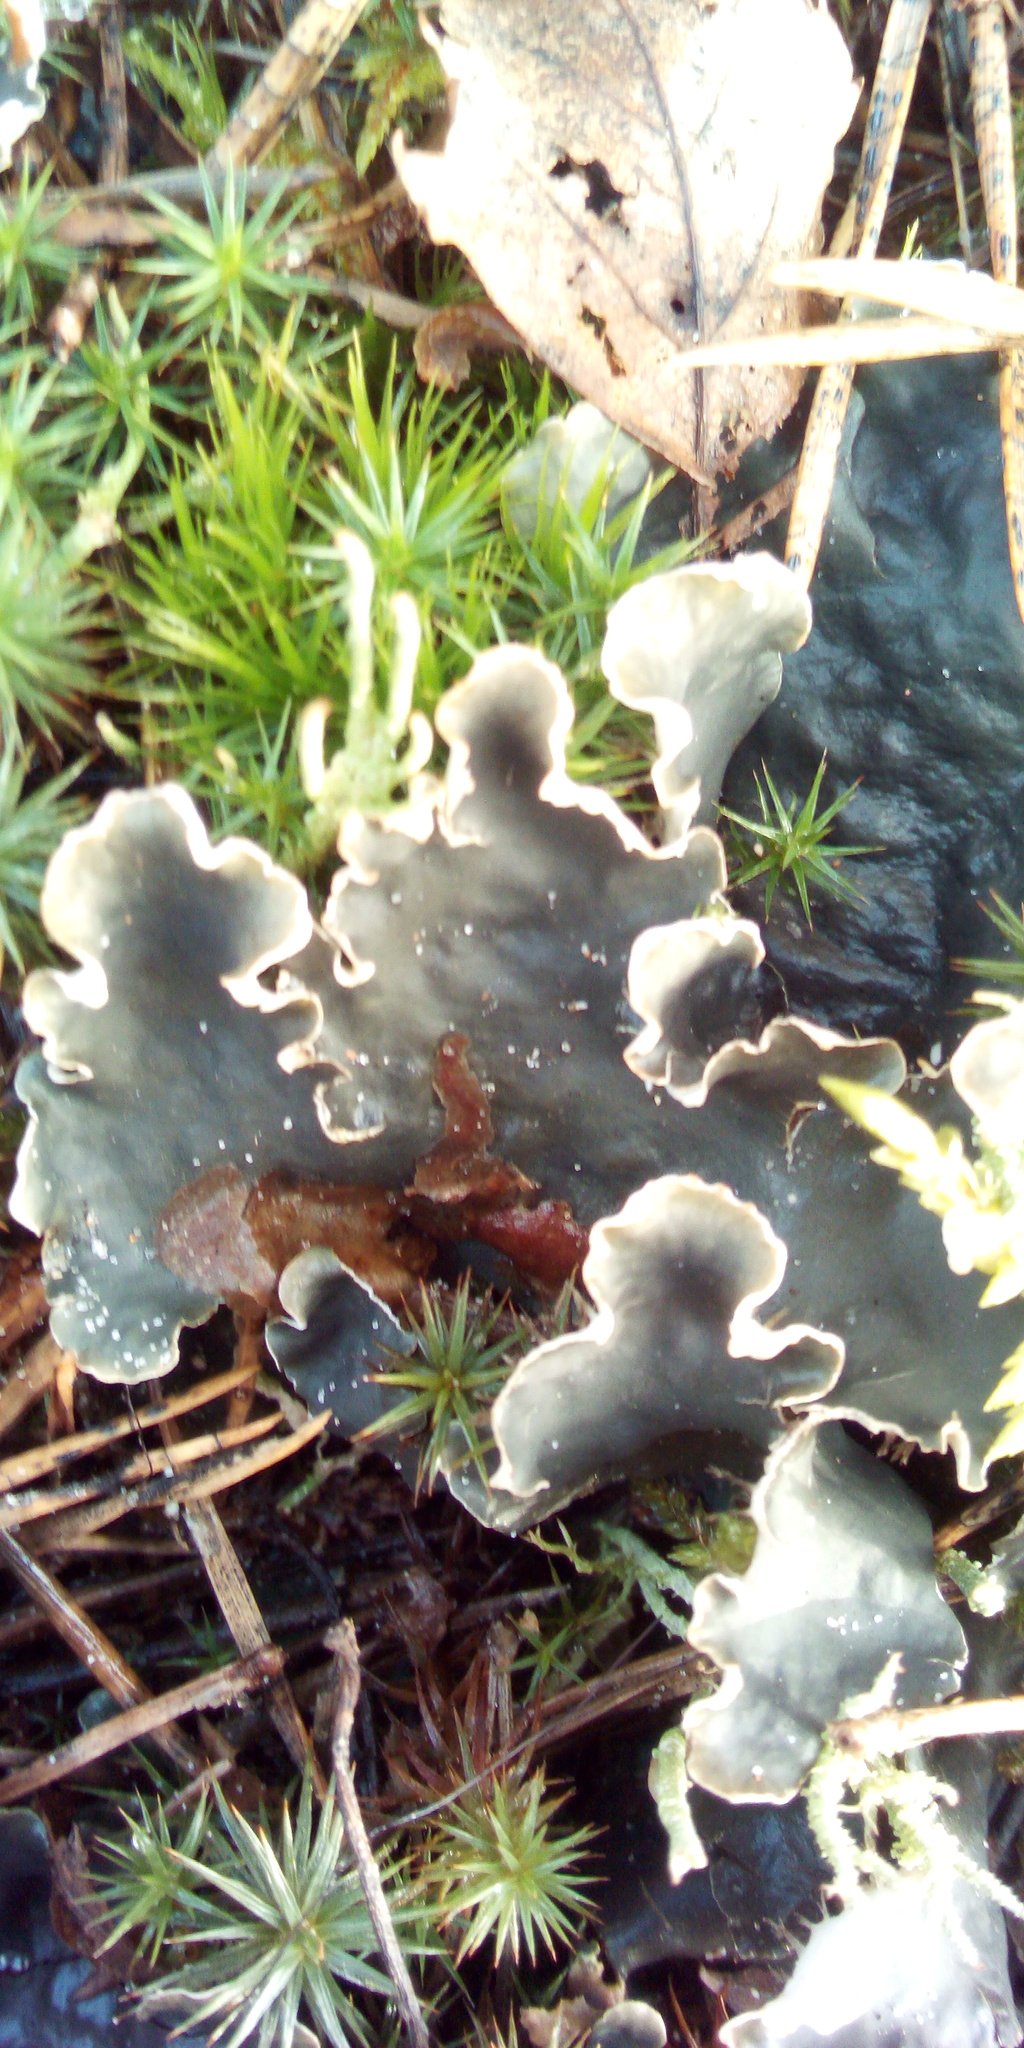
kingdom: Fungi
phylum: Ascomycota
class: Lecanoromycetes
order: Peltigerales
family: Peltigeraceae
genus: Peltigera
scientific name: Peltigera
